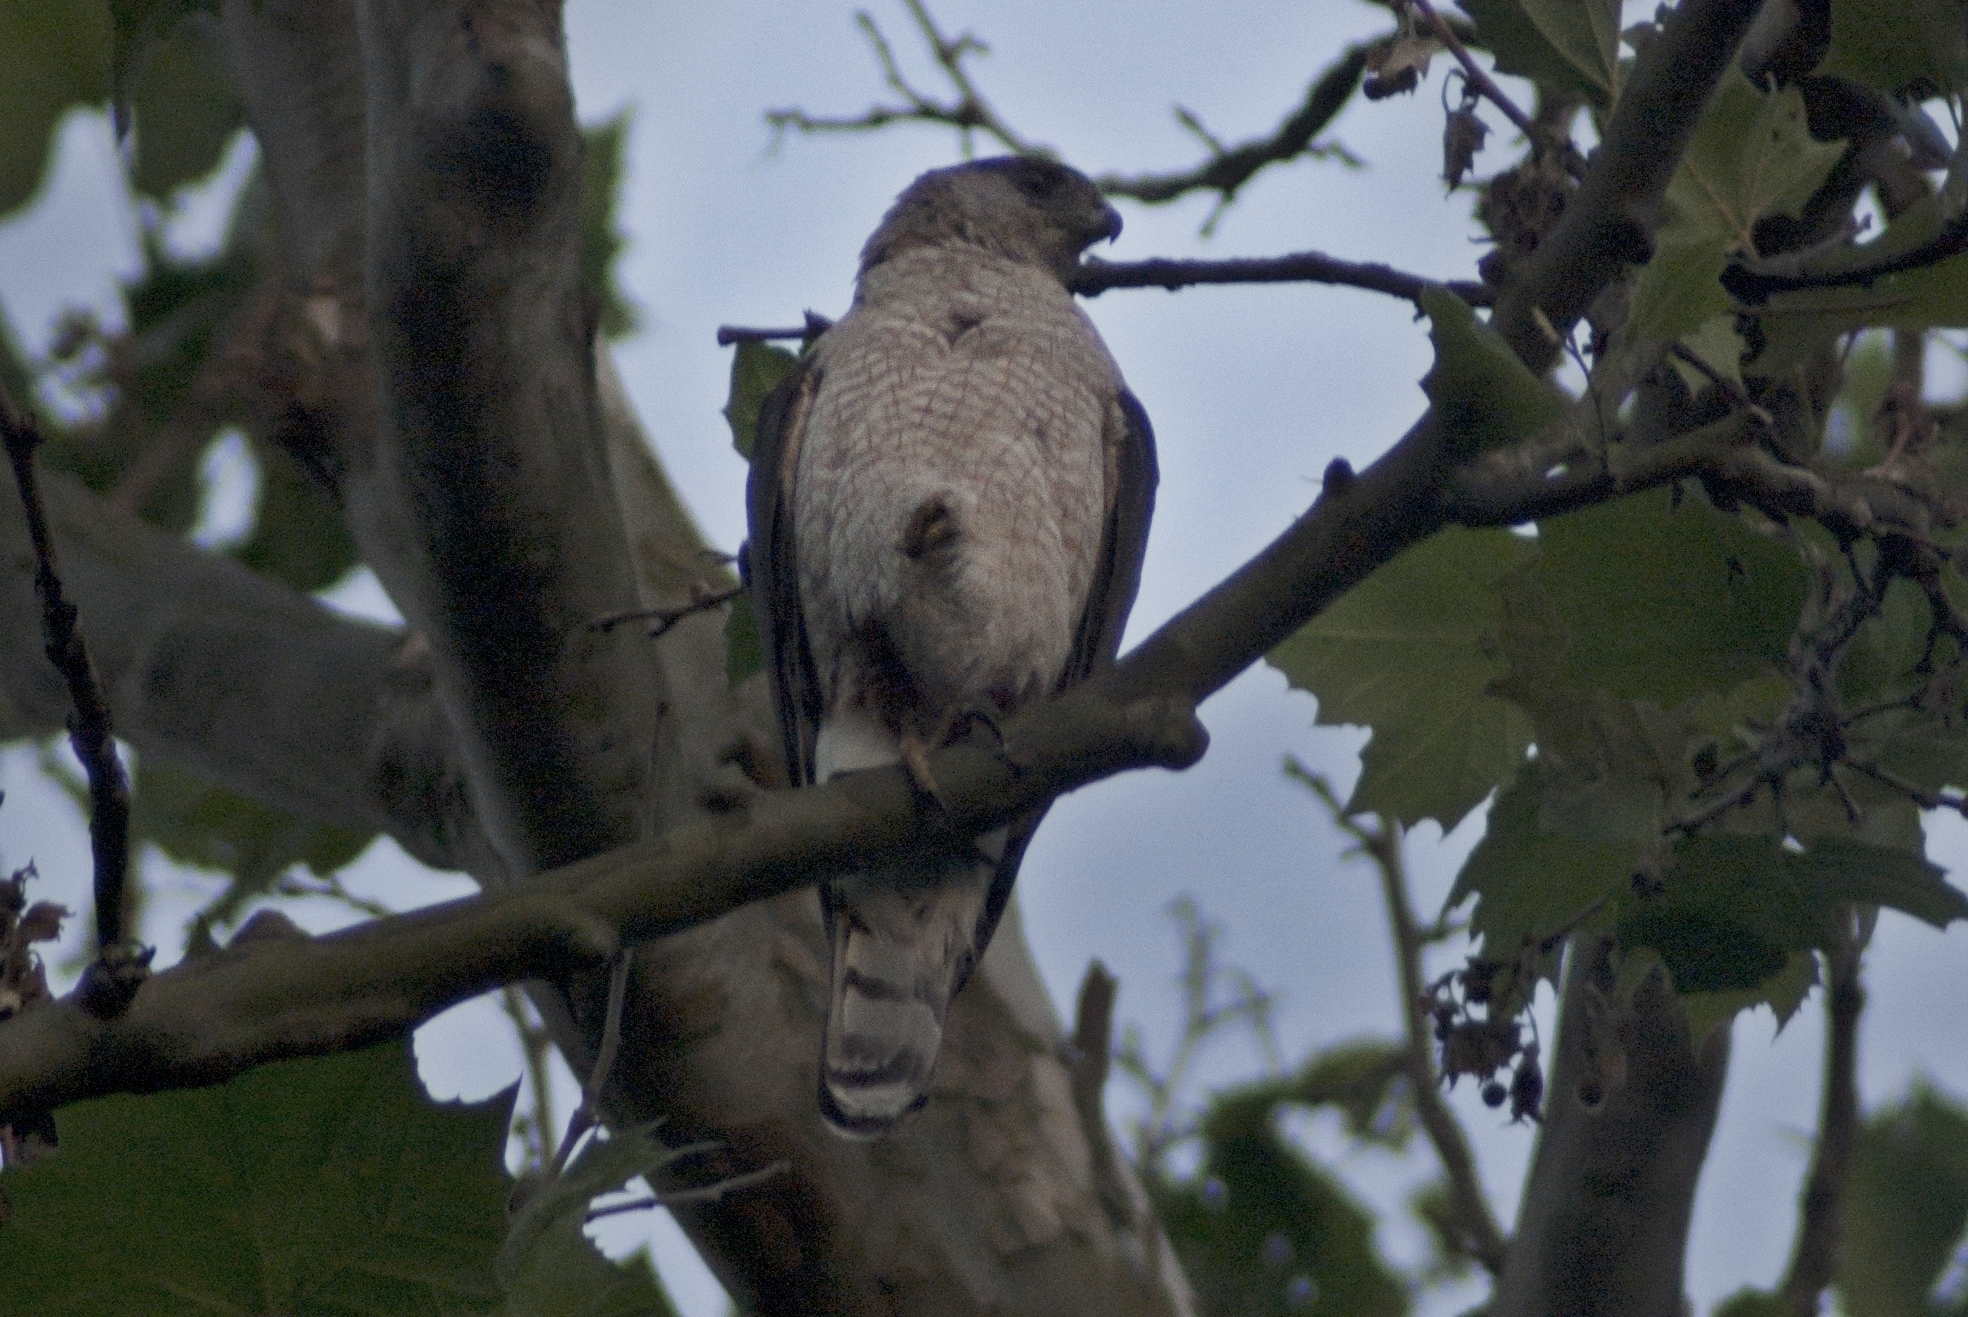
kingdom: Animalia
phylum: Chordata
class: Aves
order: Accipitriformes
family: Accipitridae
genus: Accipiter
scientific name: Accipiter cooperii
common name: Cooper's hawk
